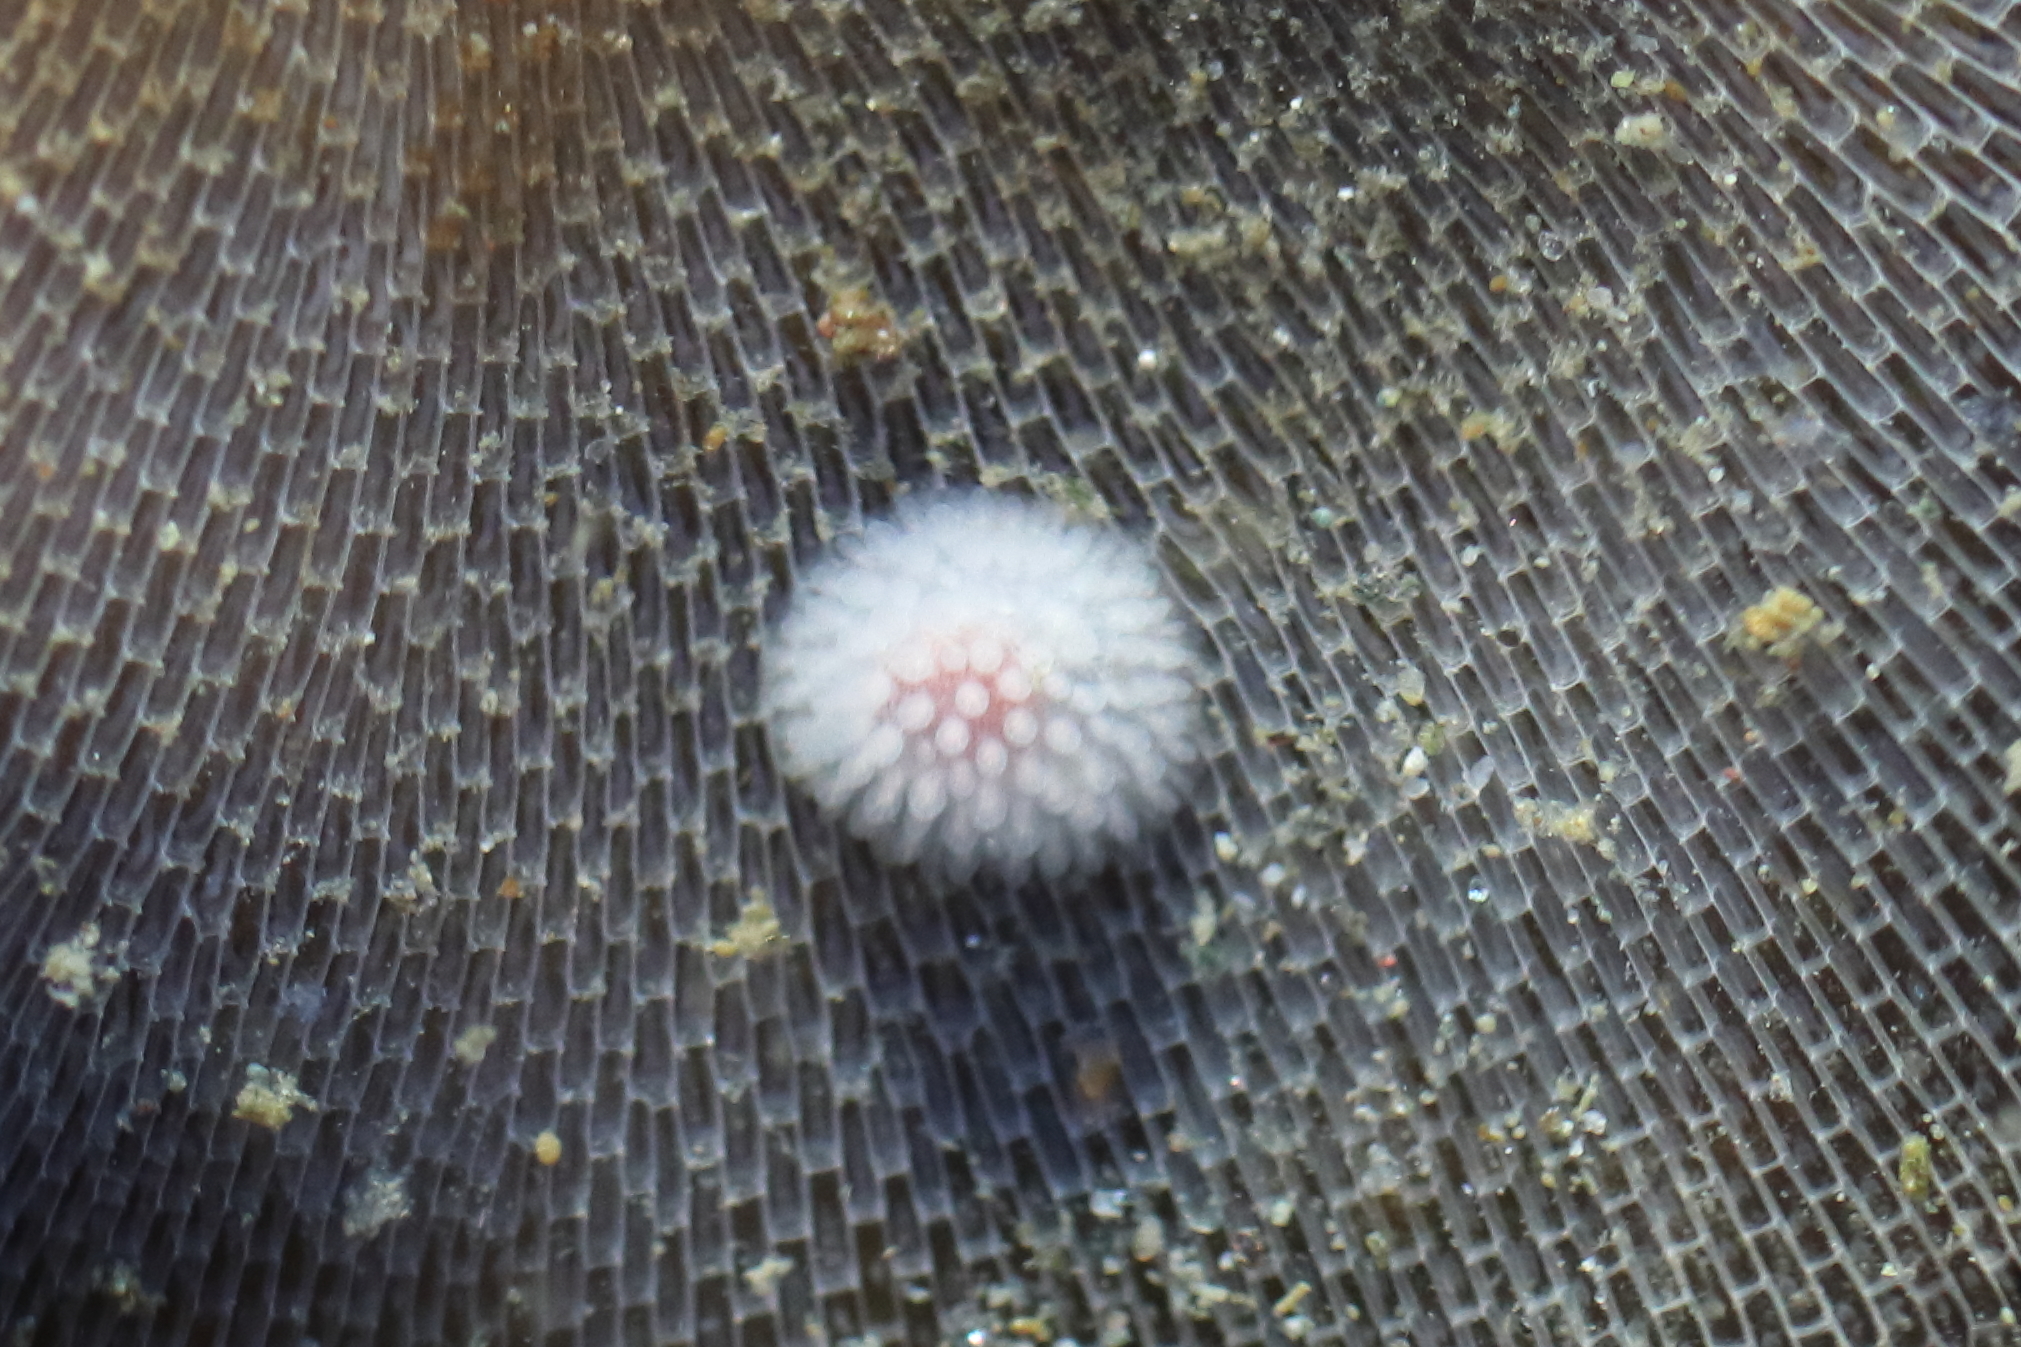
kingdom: Animalia
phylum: Mollusca
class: Gastropoda
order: Nudibranchia
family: Onchidorididae
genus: Onchidoris
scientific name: Onchidoris muricata
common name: Rough doris
